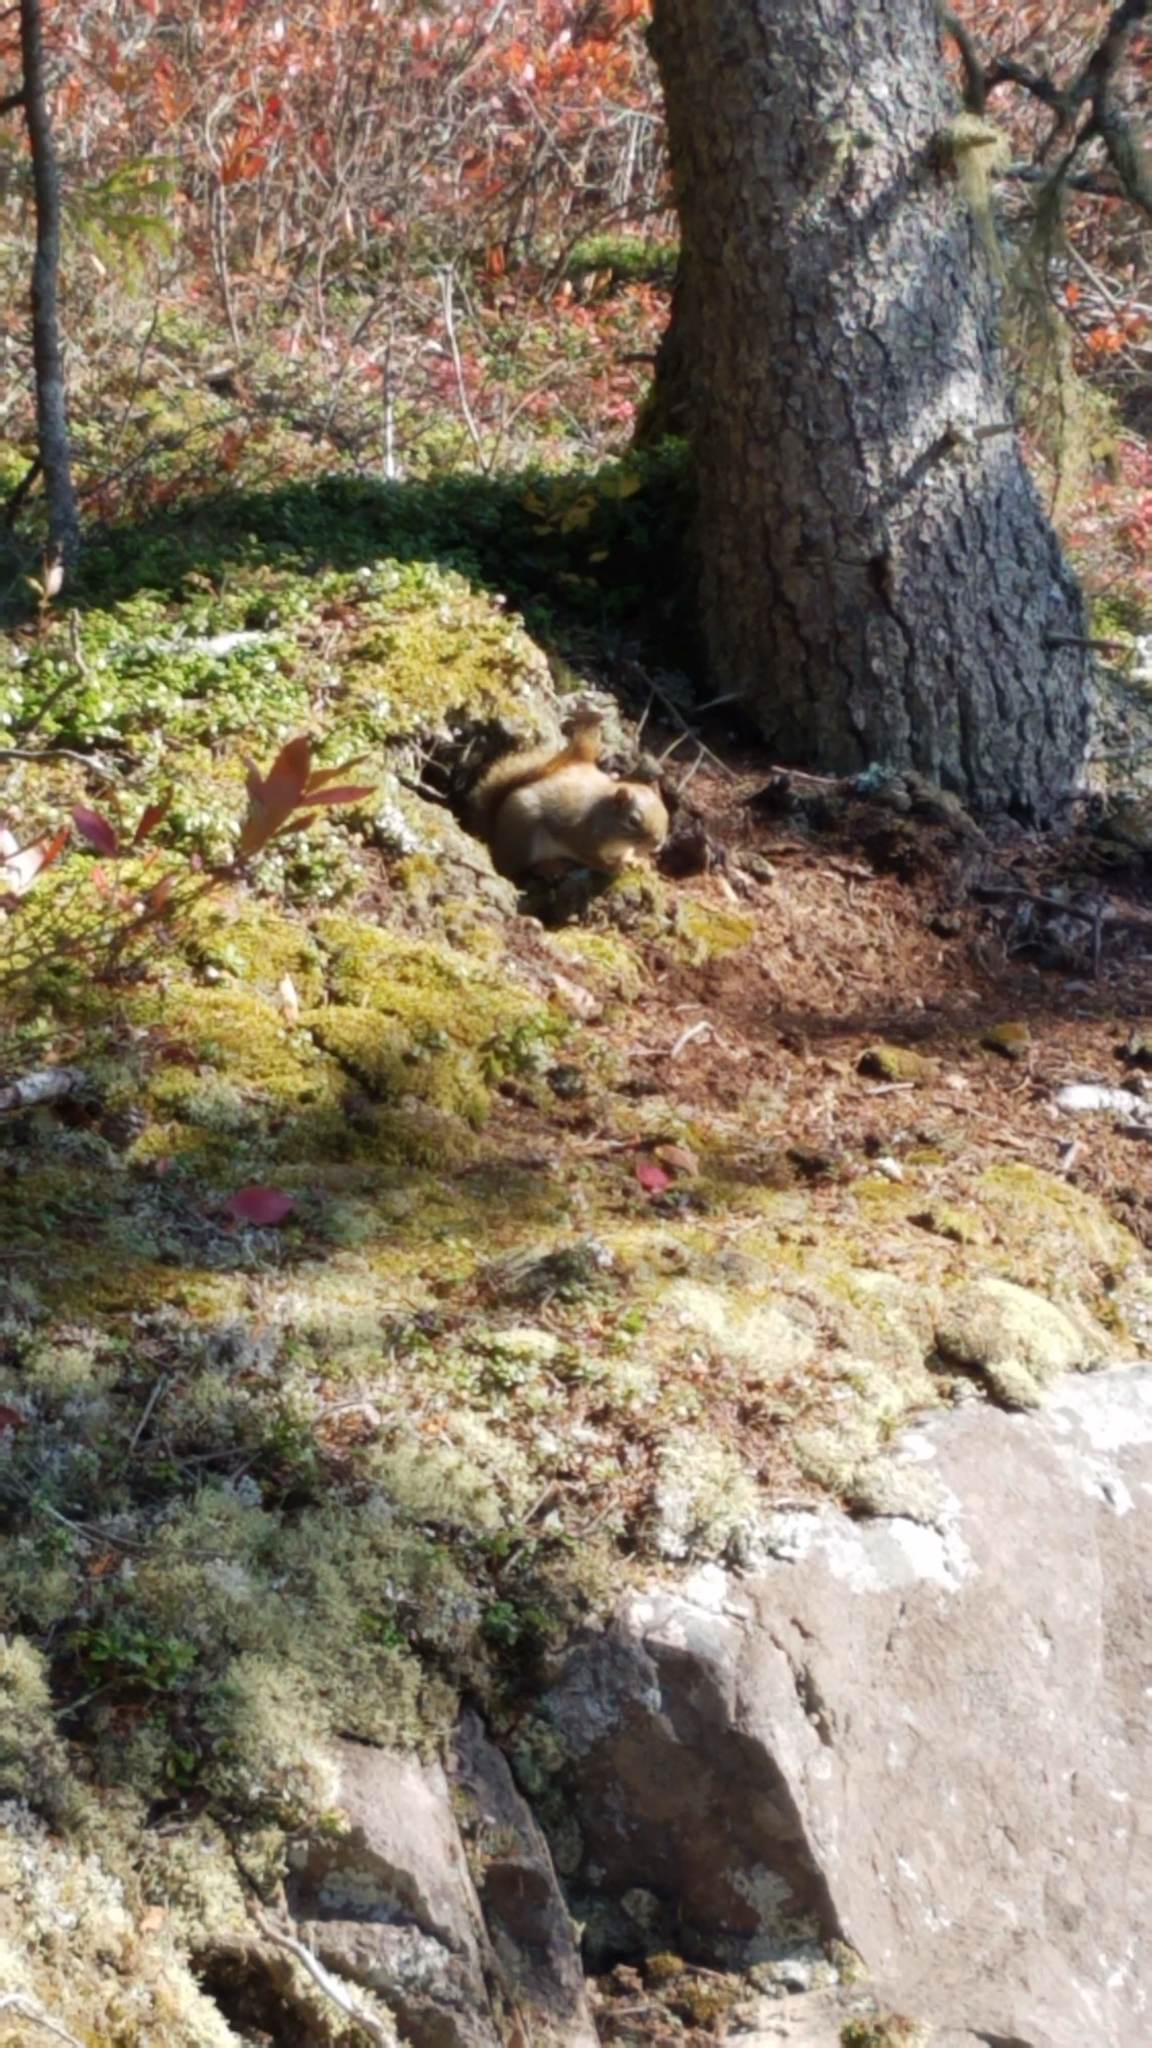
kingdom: Animalia
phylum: Chordata
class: Mammalia
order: Rodentia
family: Sciuridae
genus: Tamiasciurus
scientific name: Tamiasciurus hudsonicus
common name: Red squirrel
